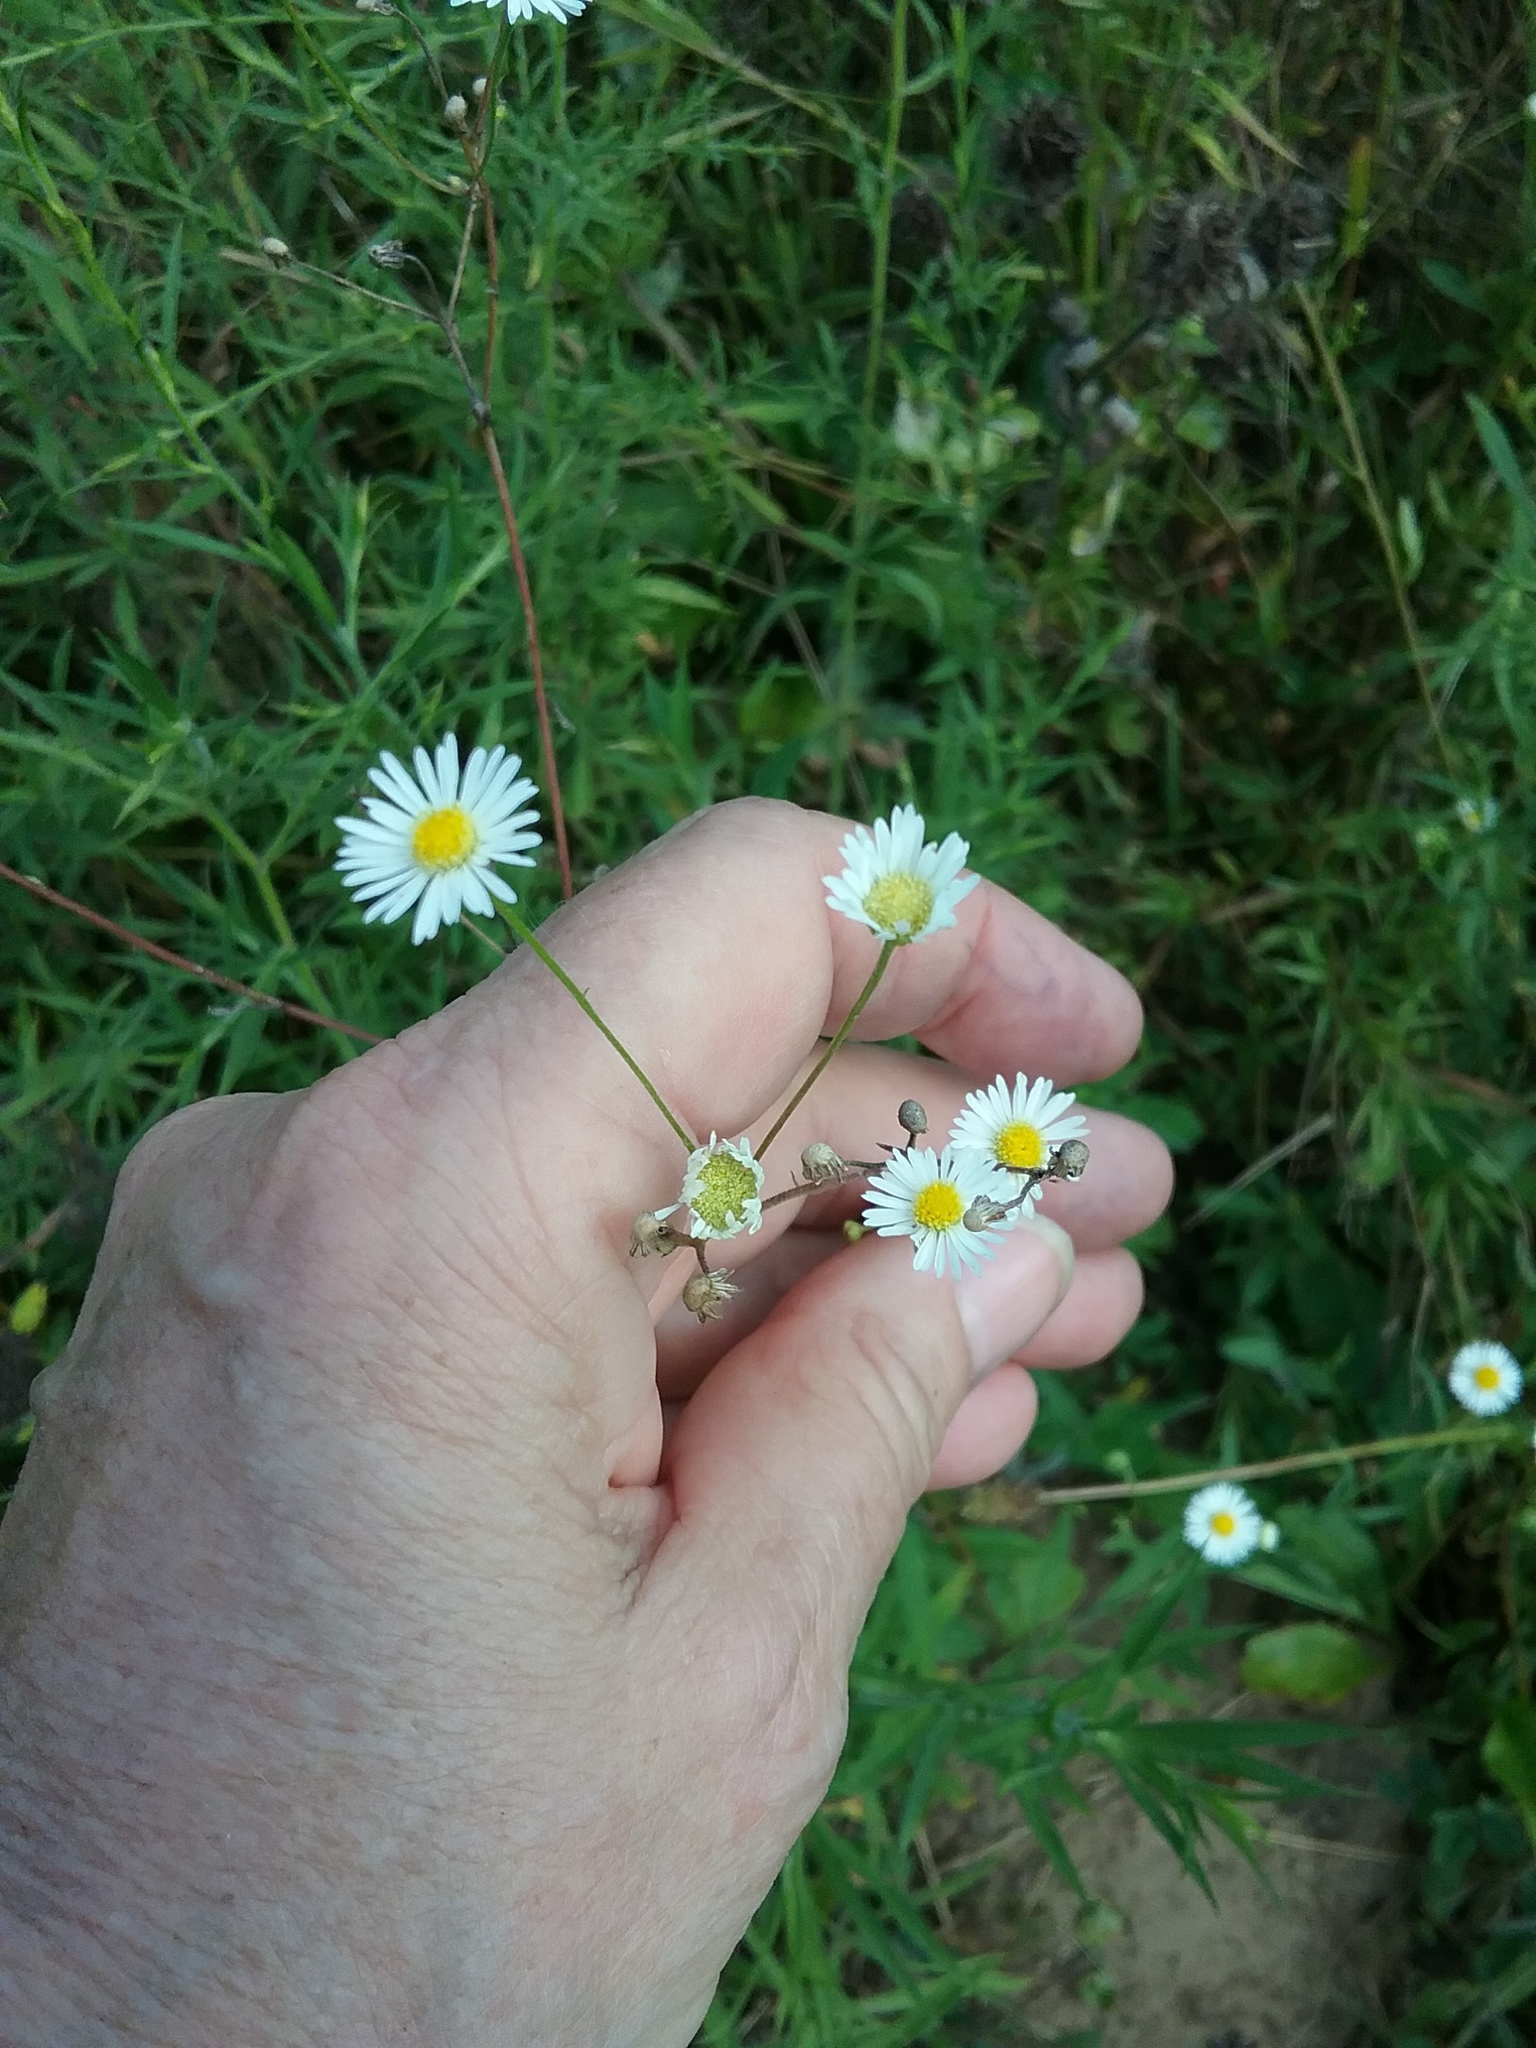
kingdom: Plantae
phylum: Tracheophyta
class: Magnoliopsida
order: Asterales
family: Asteraceae
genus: Erigeron
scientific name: Erigeron strigosus
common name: Common eastern fleabane
